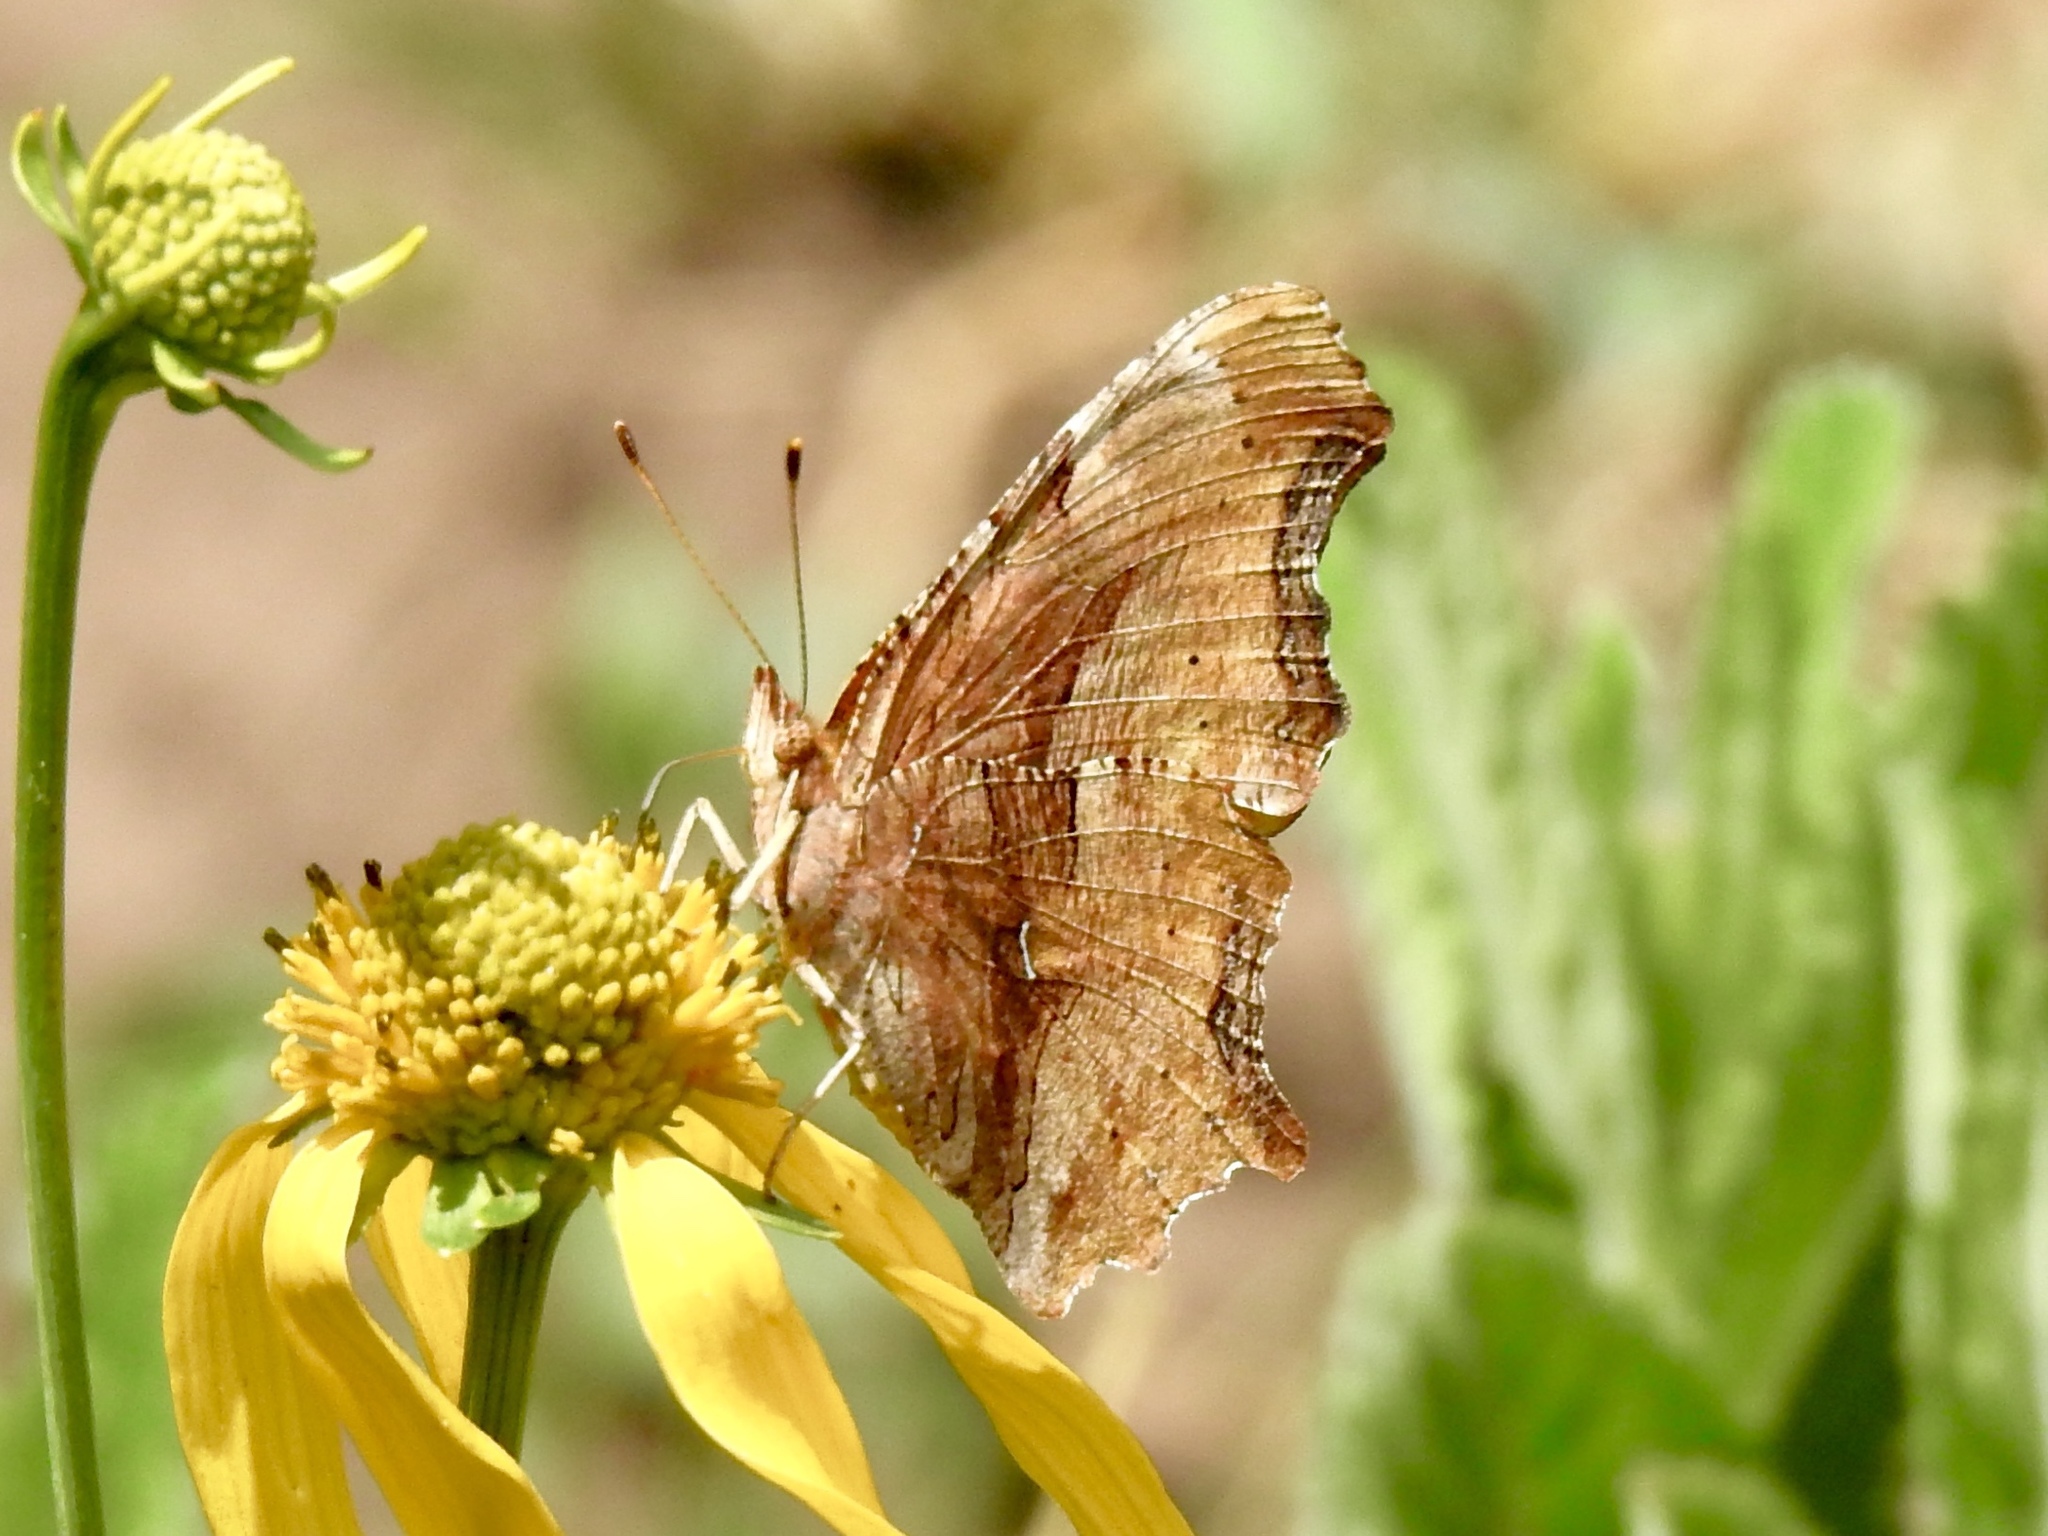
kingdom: Animalia
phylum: Arthropoda
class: Insecta
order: Lepidoptera
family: Nymphalidae
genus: Polygonia
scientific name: Polygonia satyrus
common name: Satyr angle wing
